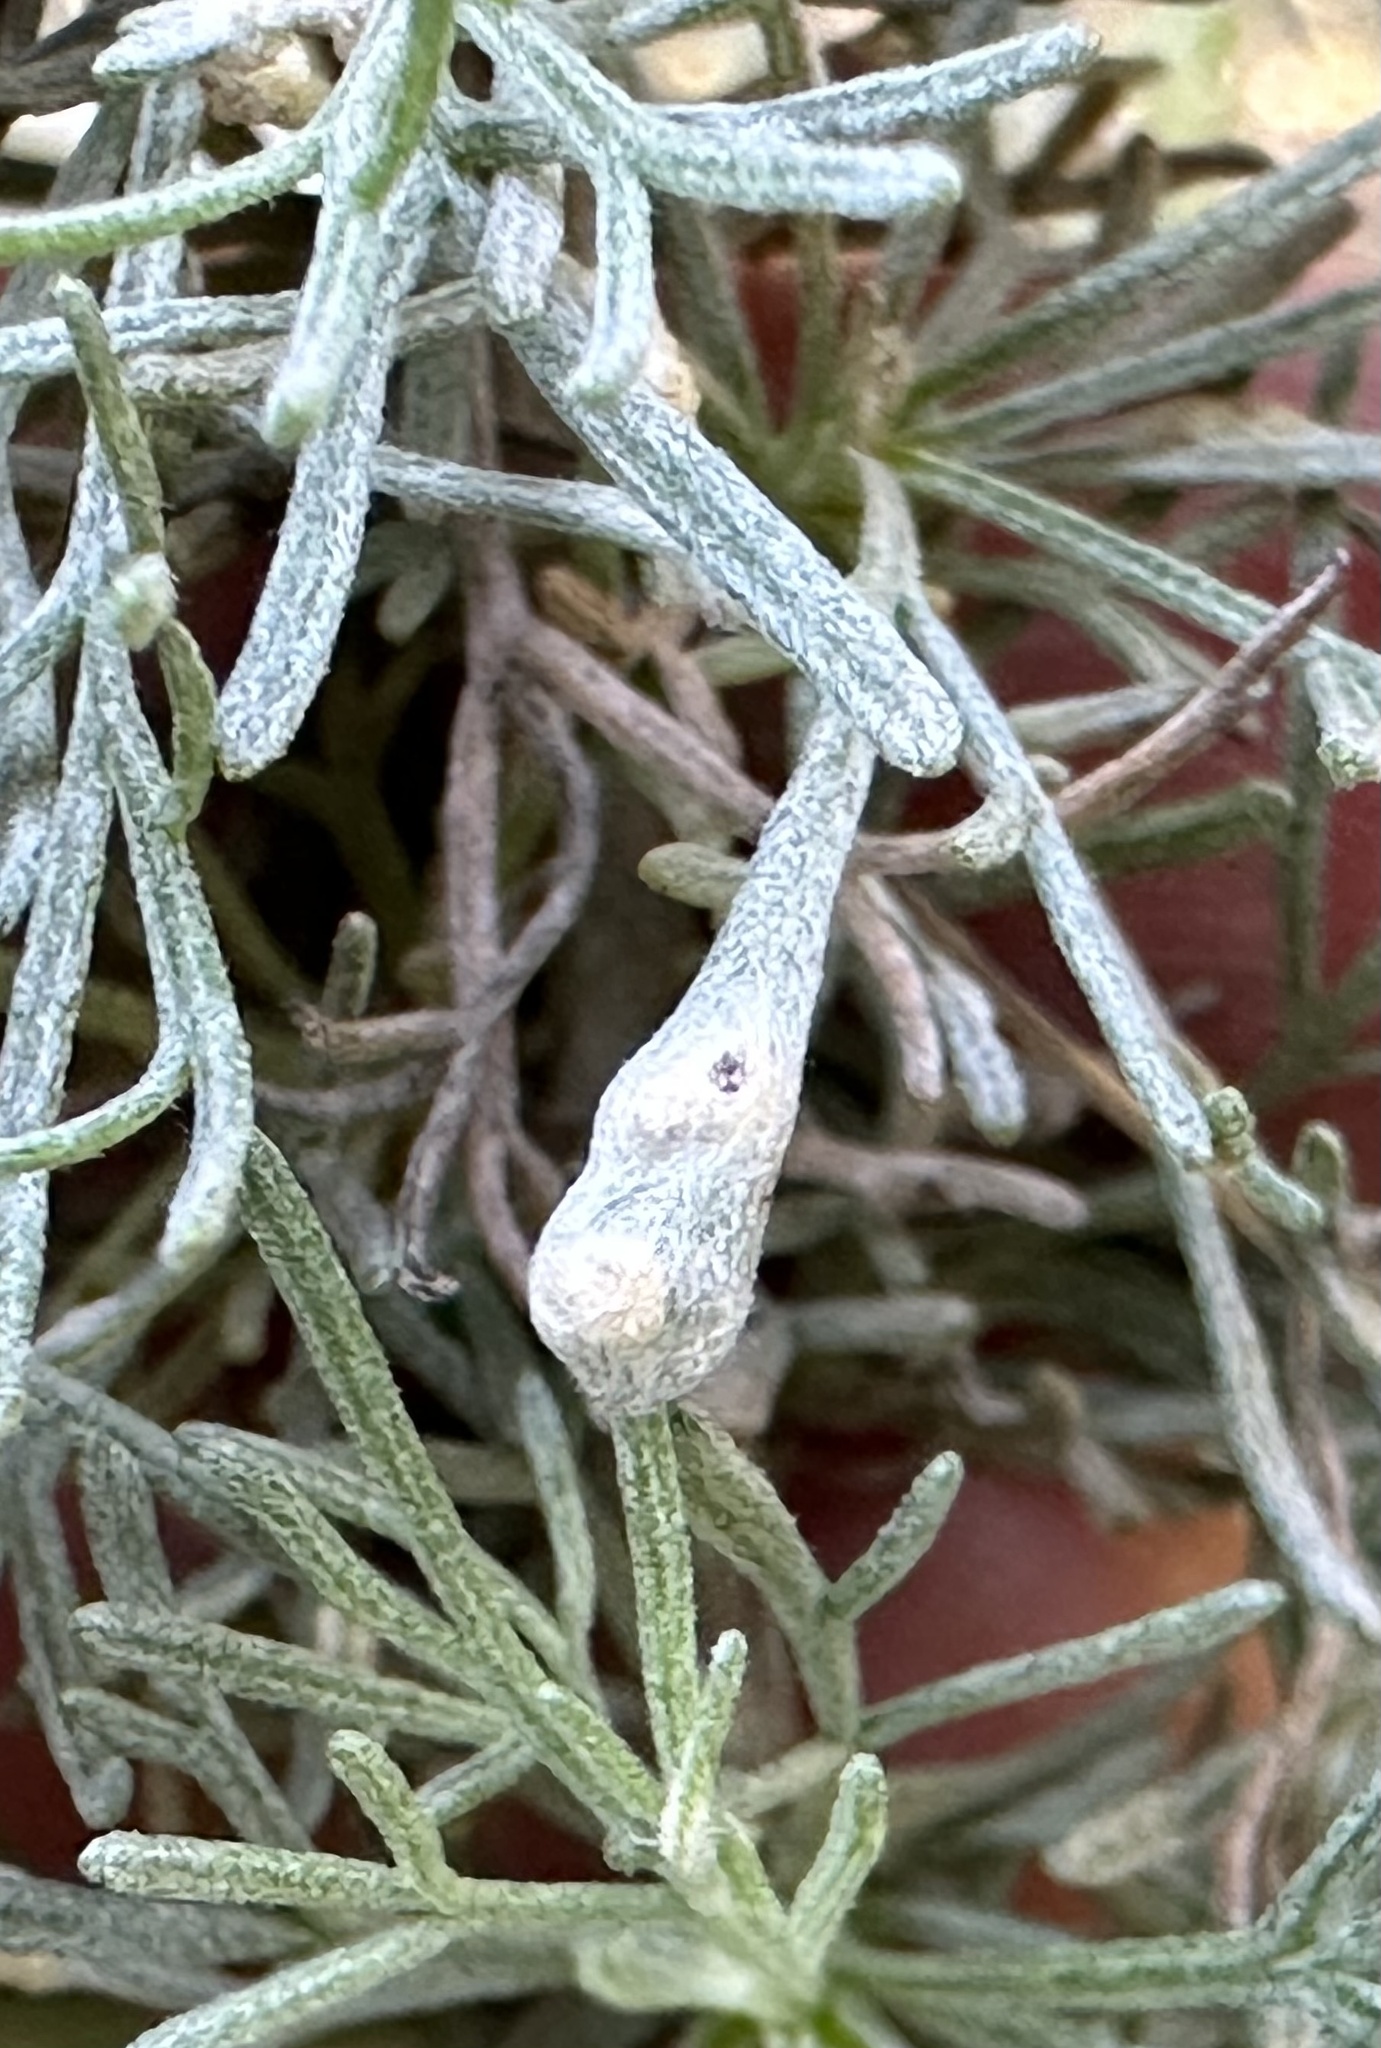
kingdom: Animalia
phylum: Arthropoda
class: Arachnida
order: Trombidiformes
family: Eriophyidae
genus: Aceria
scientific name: Aceria
